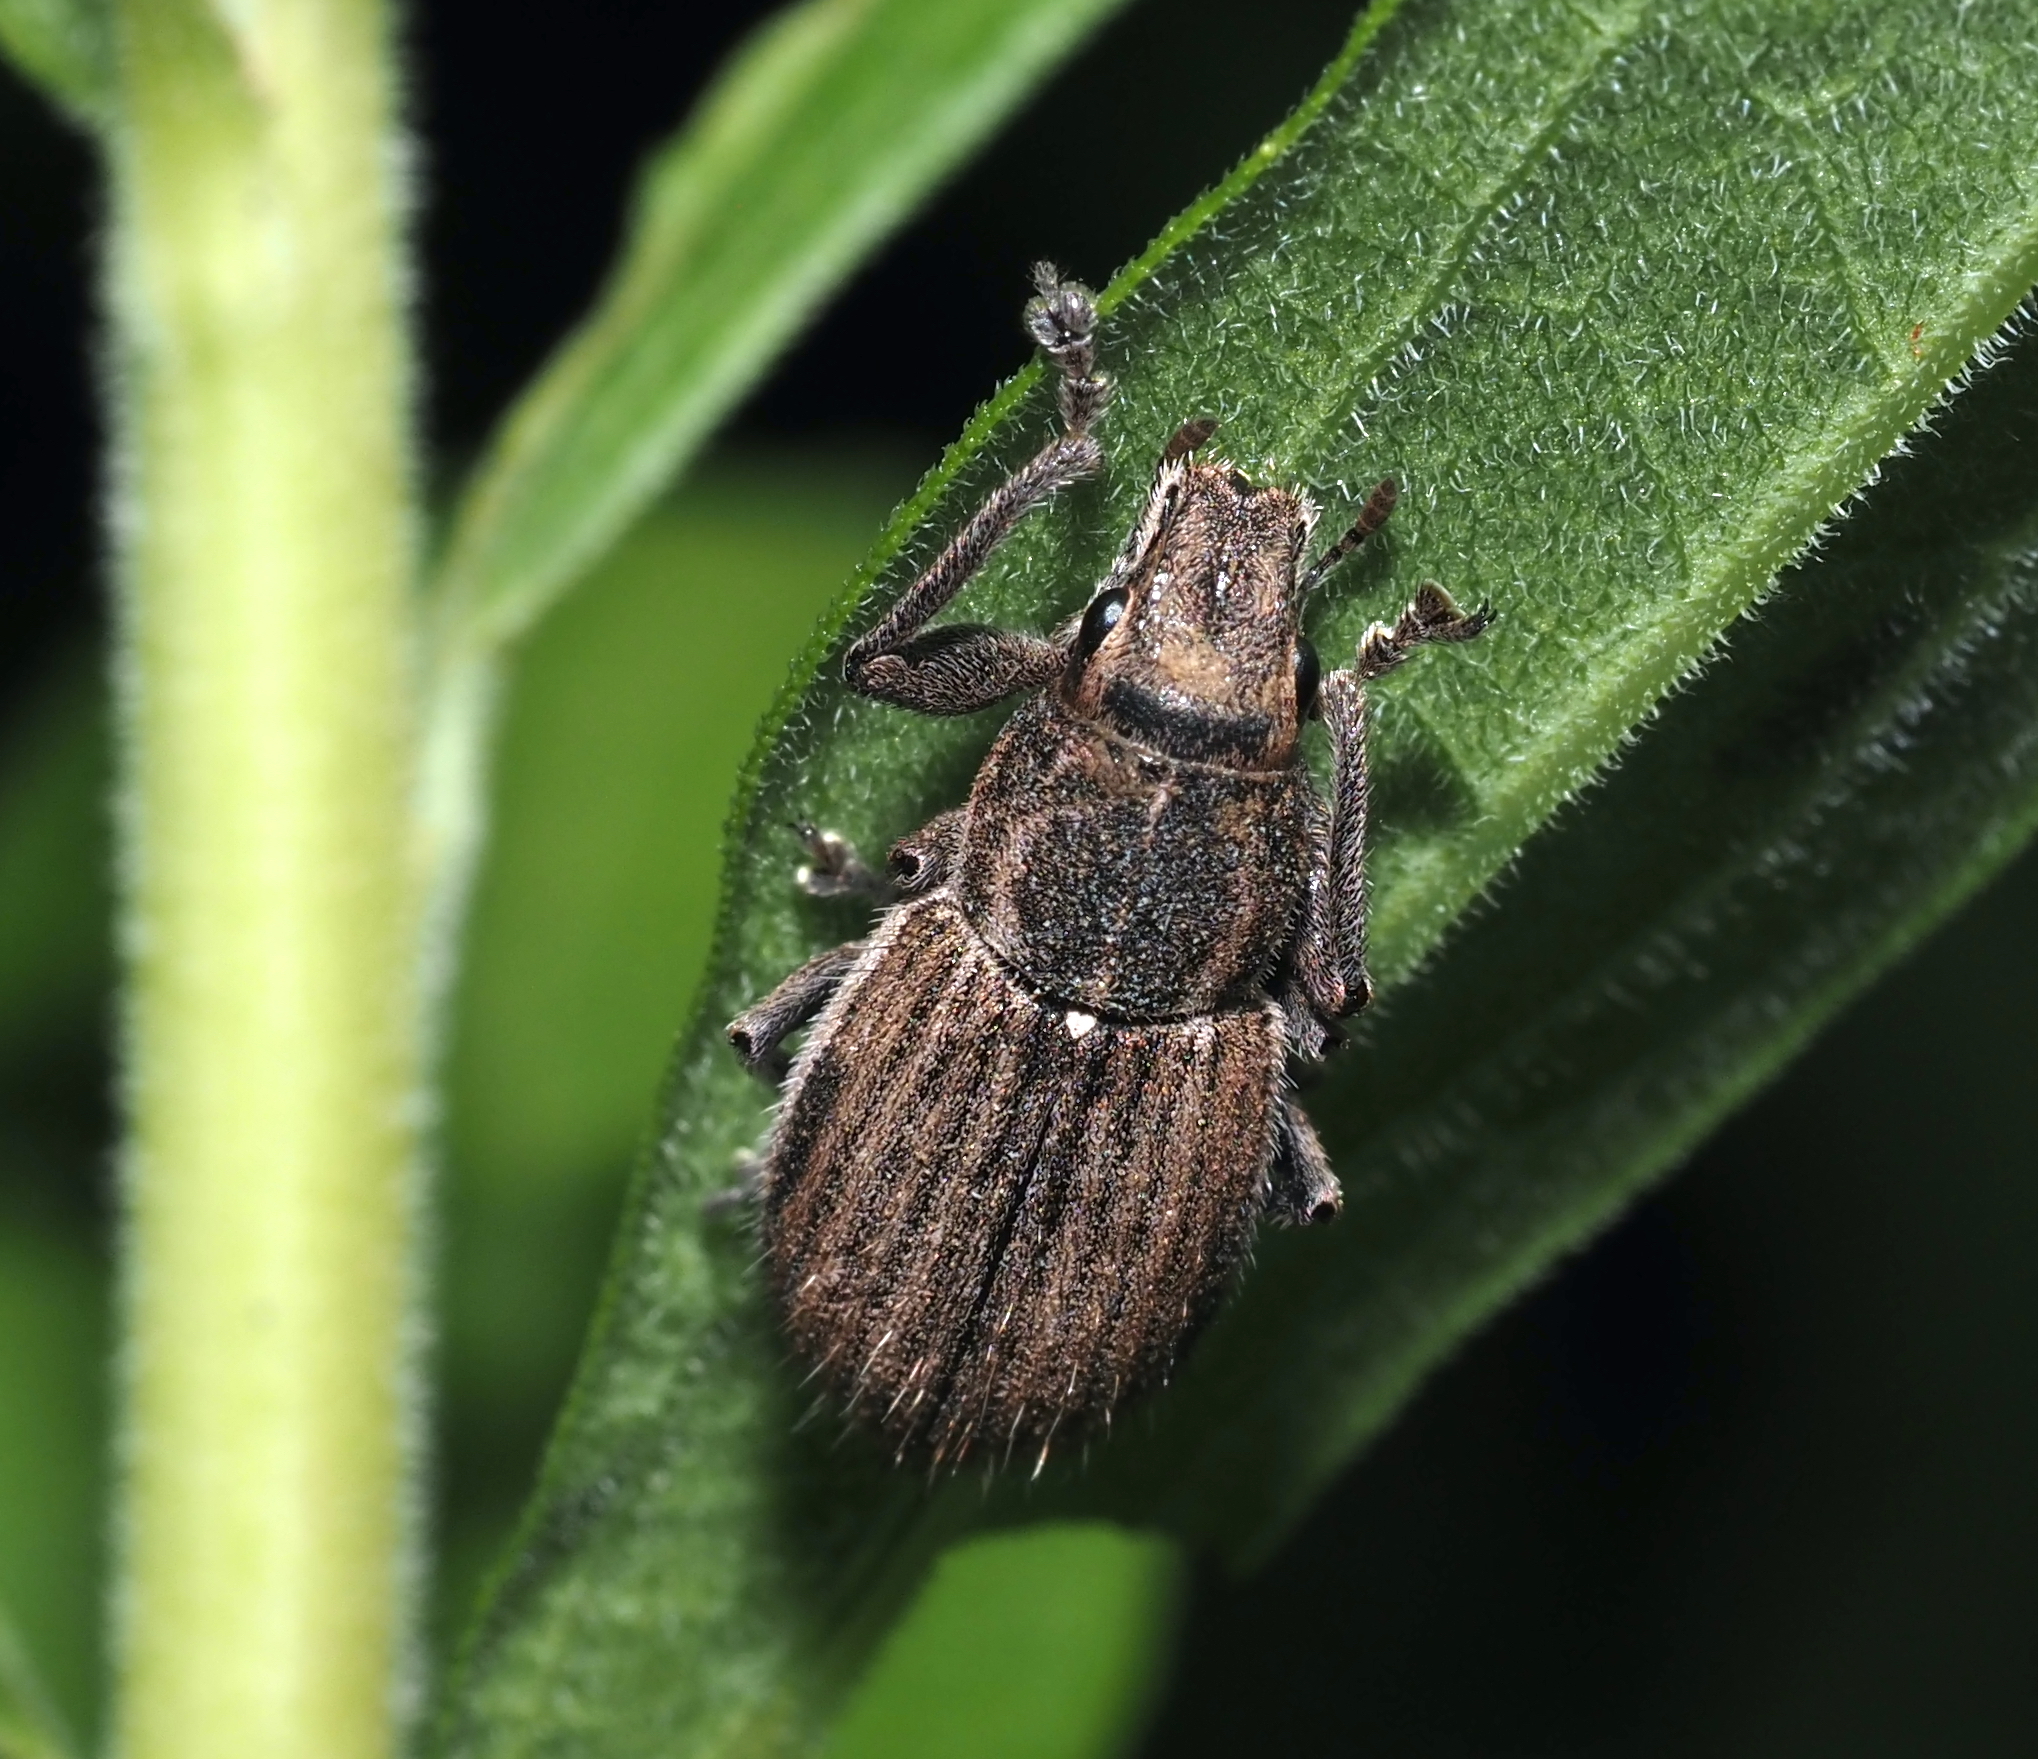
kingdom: Animalia
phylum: Arthropoda
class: Insecta
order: Coleoptera
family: Curculionidae
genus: Naupactus
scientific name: Naupactus leucoloma
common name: Whitefringed beetle
